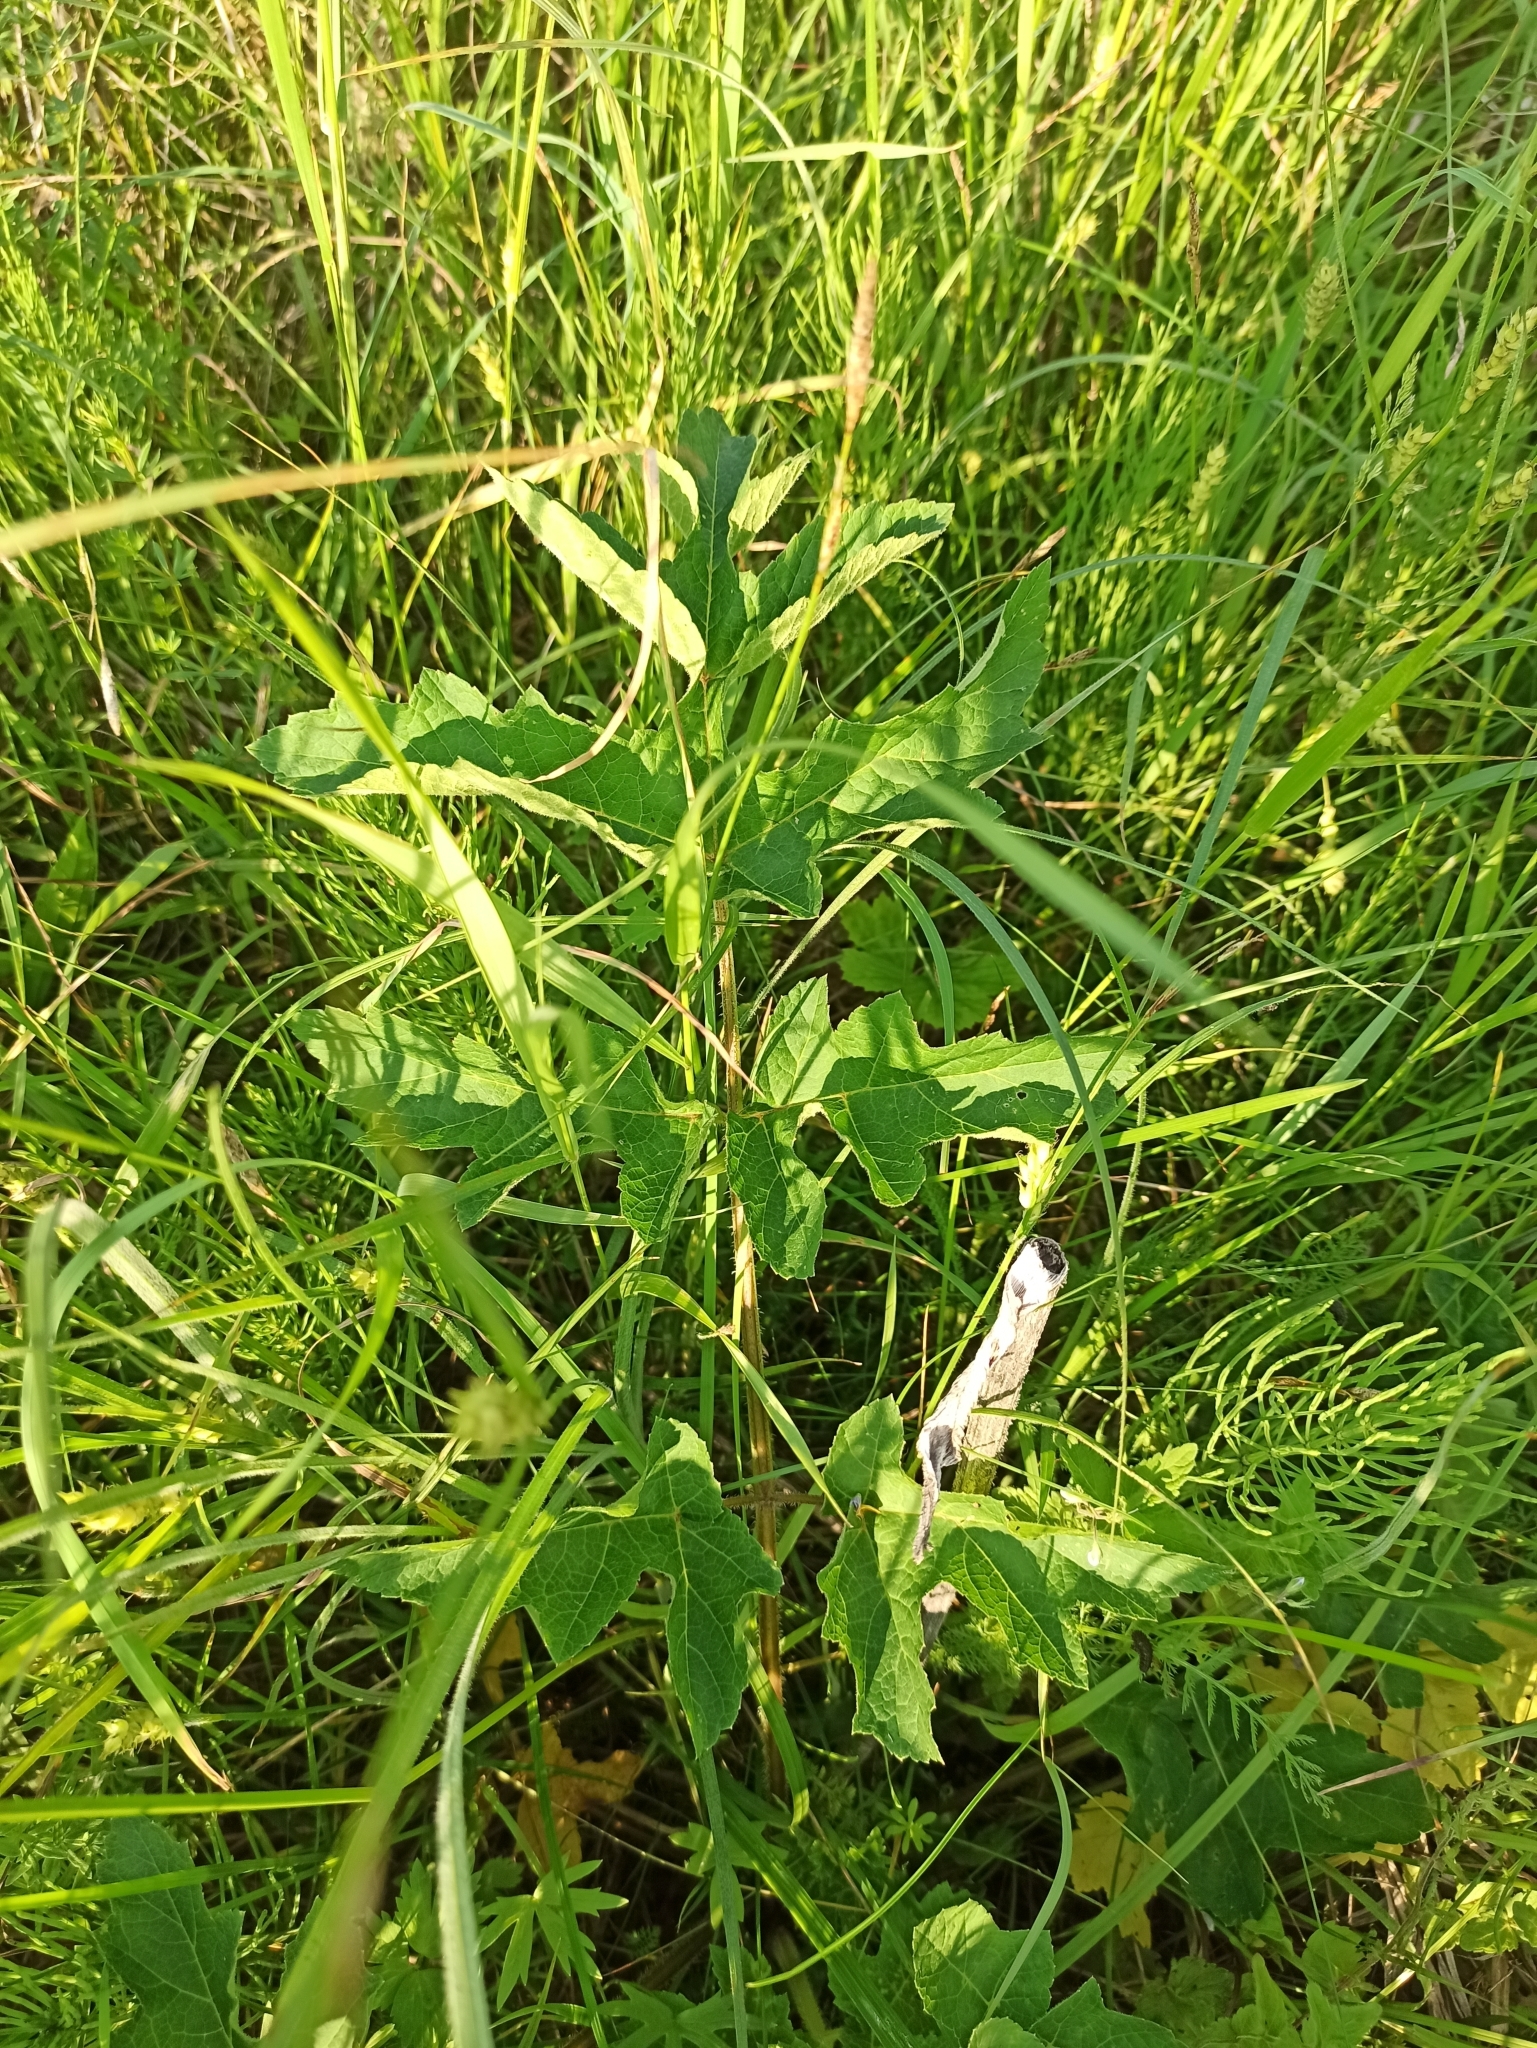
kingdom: Plantae
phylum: Tracheophyta
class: Magnoliopsida
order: Apiales
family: Apiaceae
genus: Heracleum
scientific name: Heracleum sphondylium
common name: Hogweed
